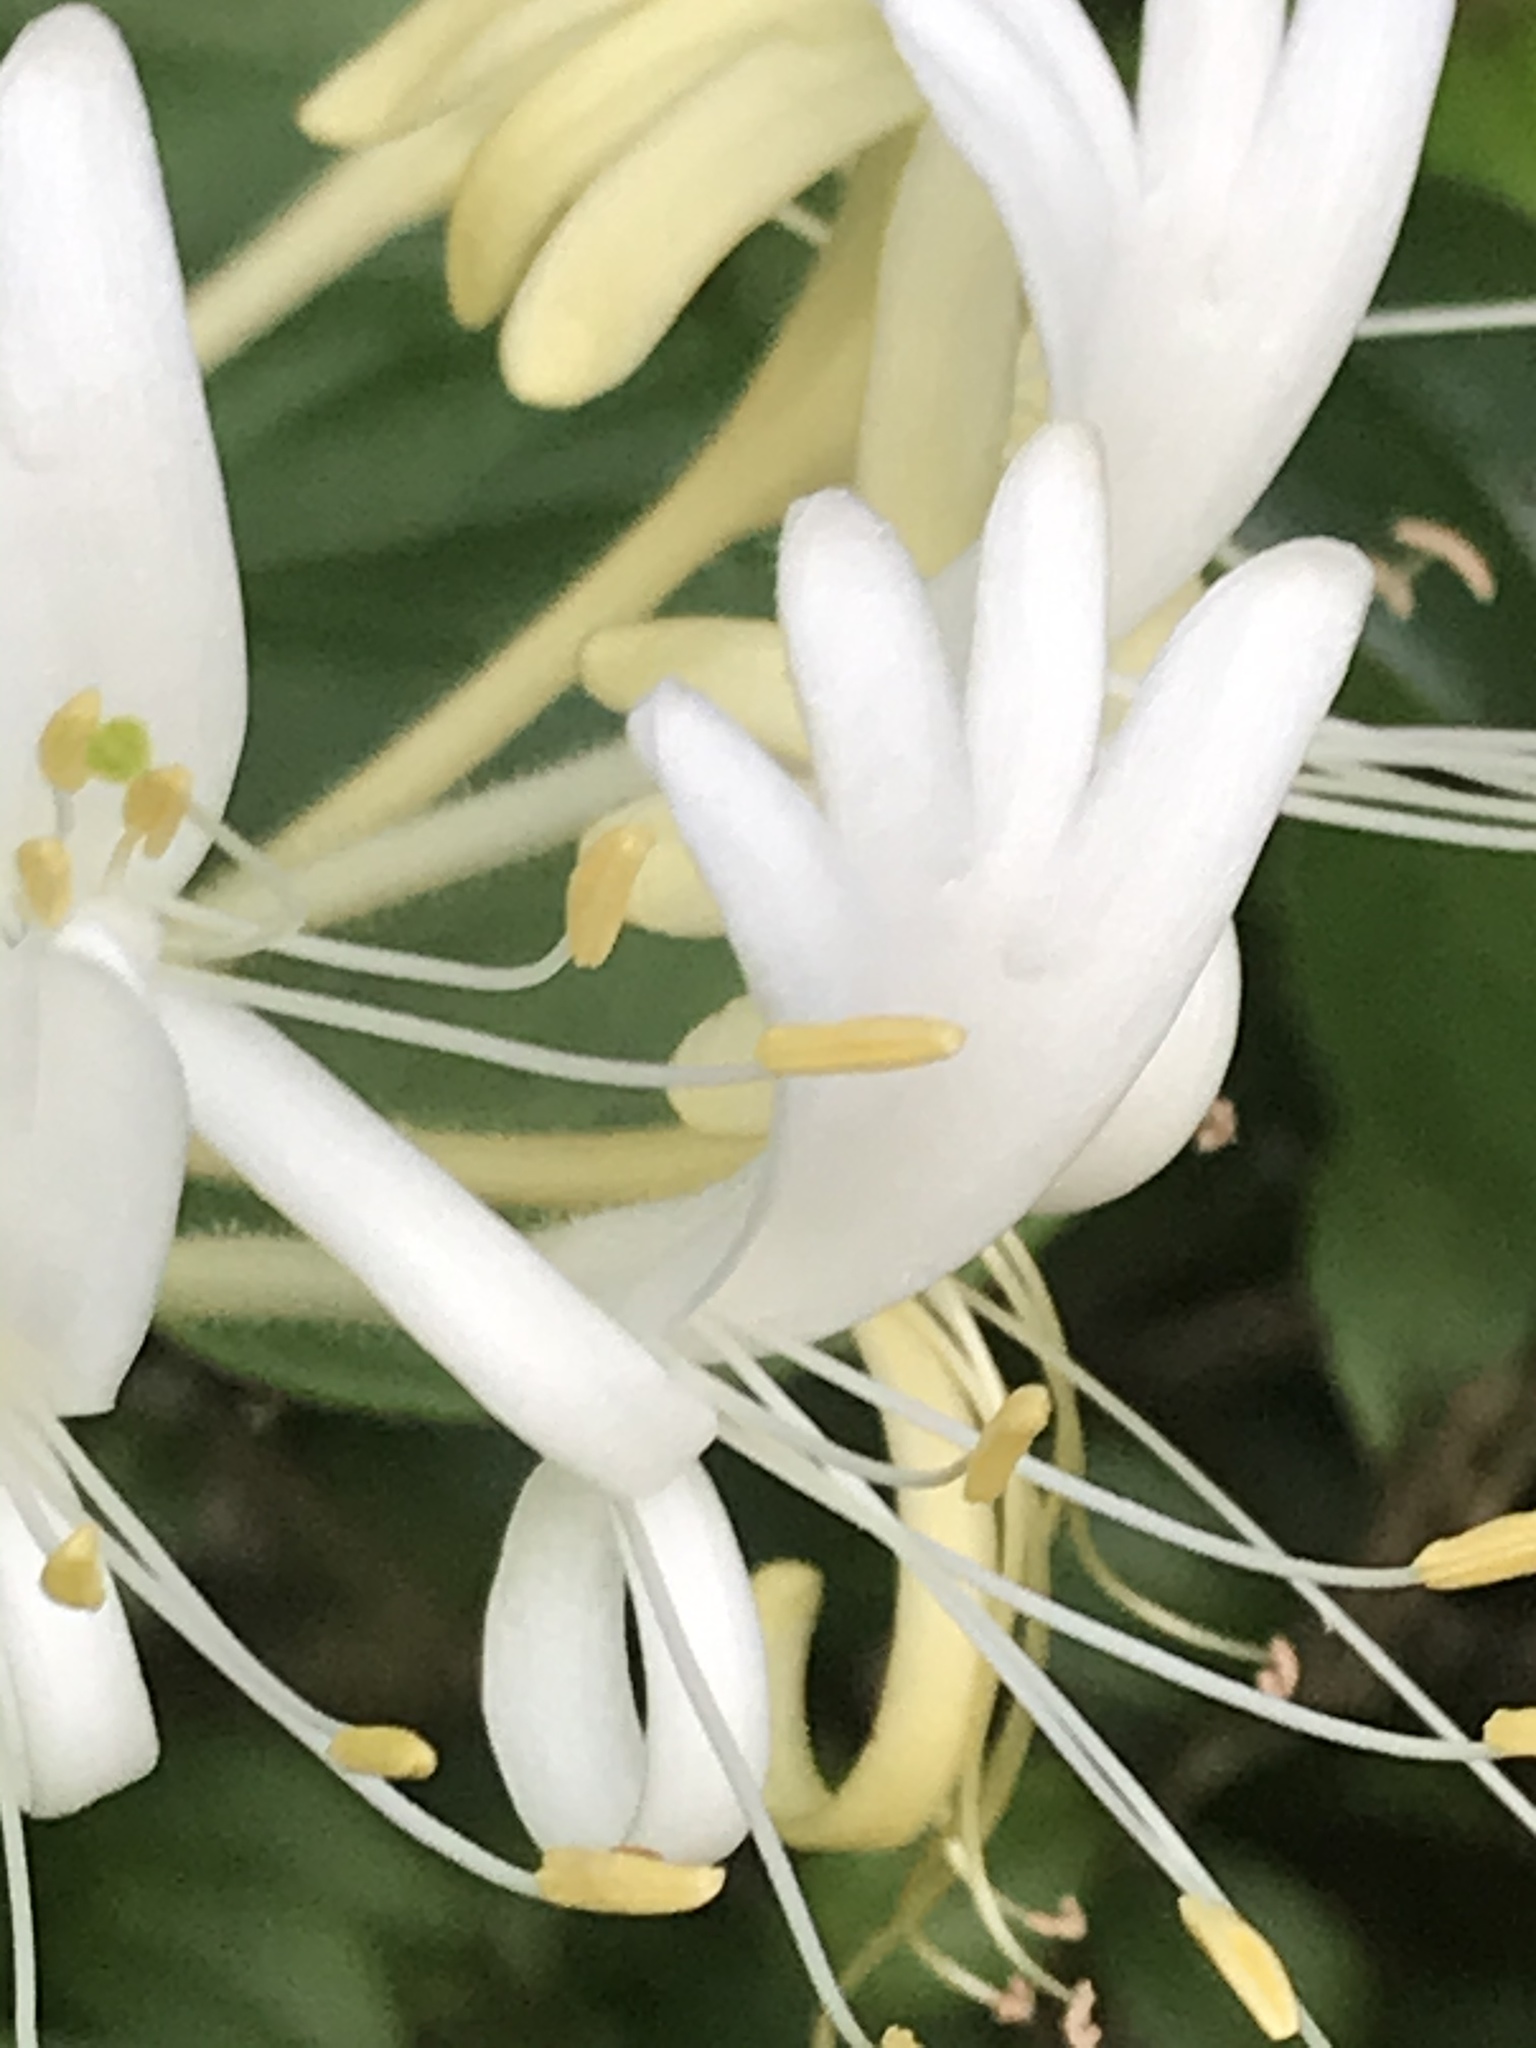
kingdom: Plantae
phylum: Tracheophyta
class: Magnoliopsida
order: Dipsacales
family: Caprifoliaceae
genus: Lonicera
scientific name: Lonicera japonica
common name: Japanese honeysuckle
